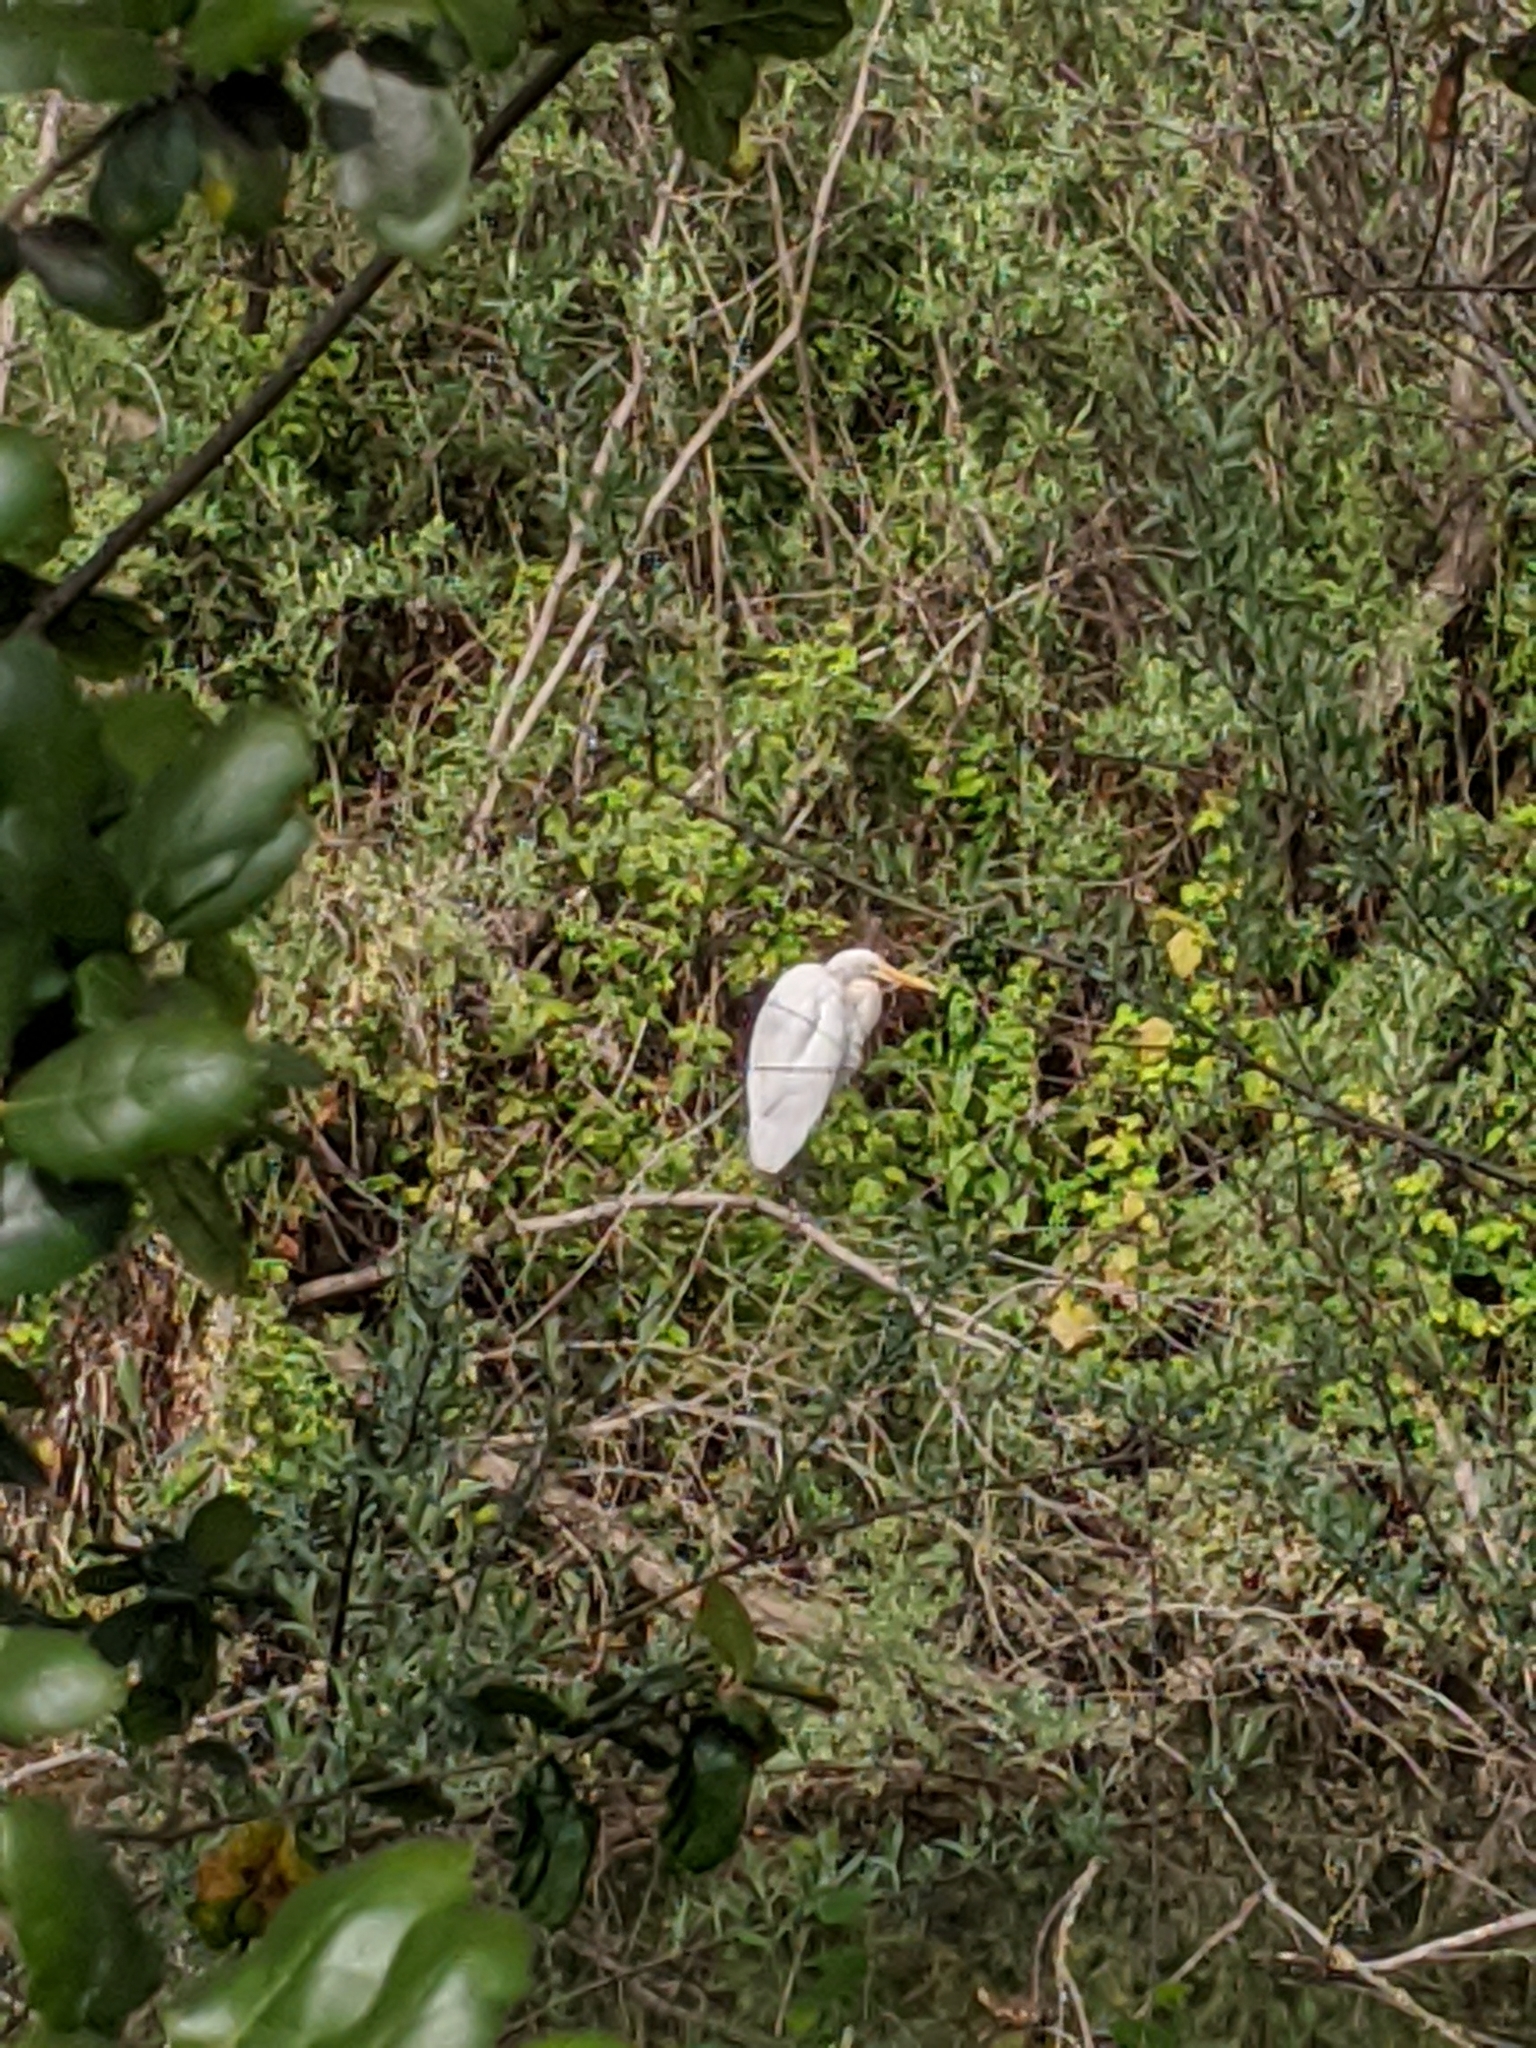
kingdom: Animalia
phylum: Chordata
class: Aves
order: Pelecaniformes
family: Ardeidae
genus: Ardea
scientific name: Ardea alba
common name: Great egret
